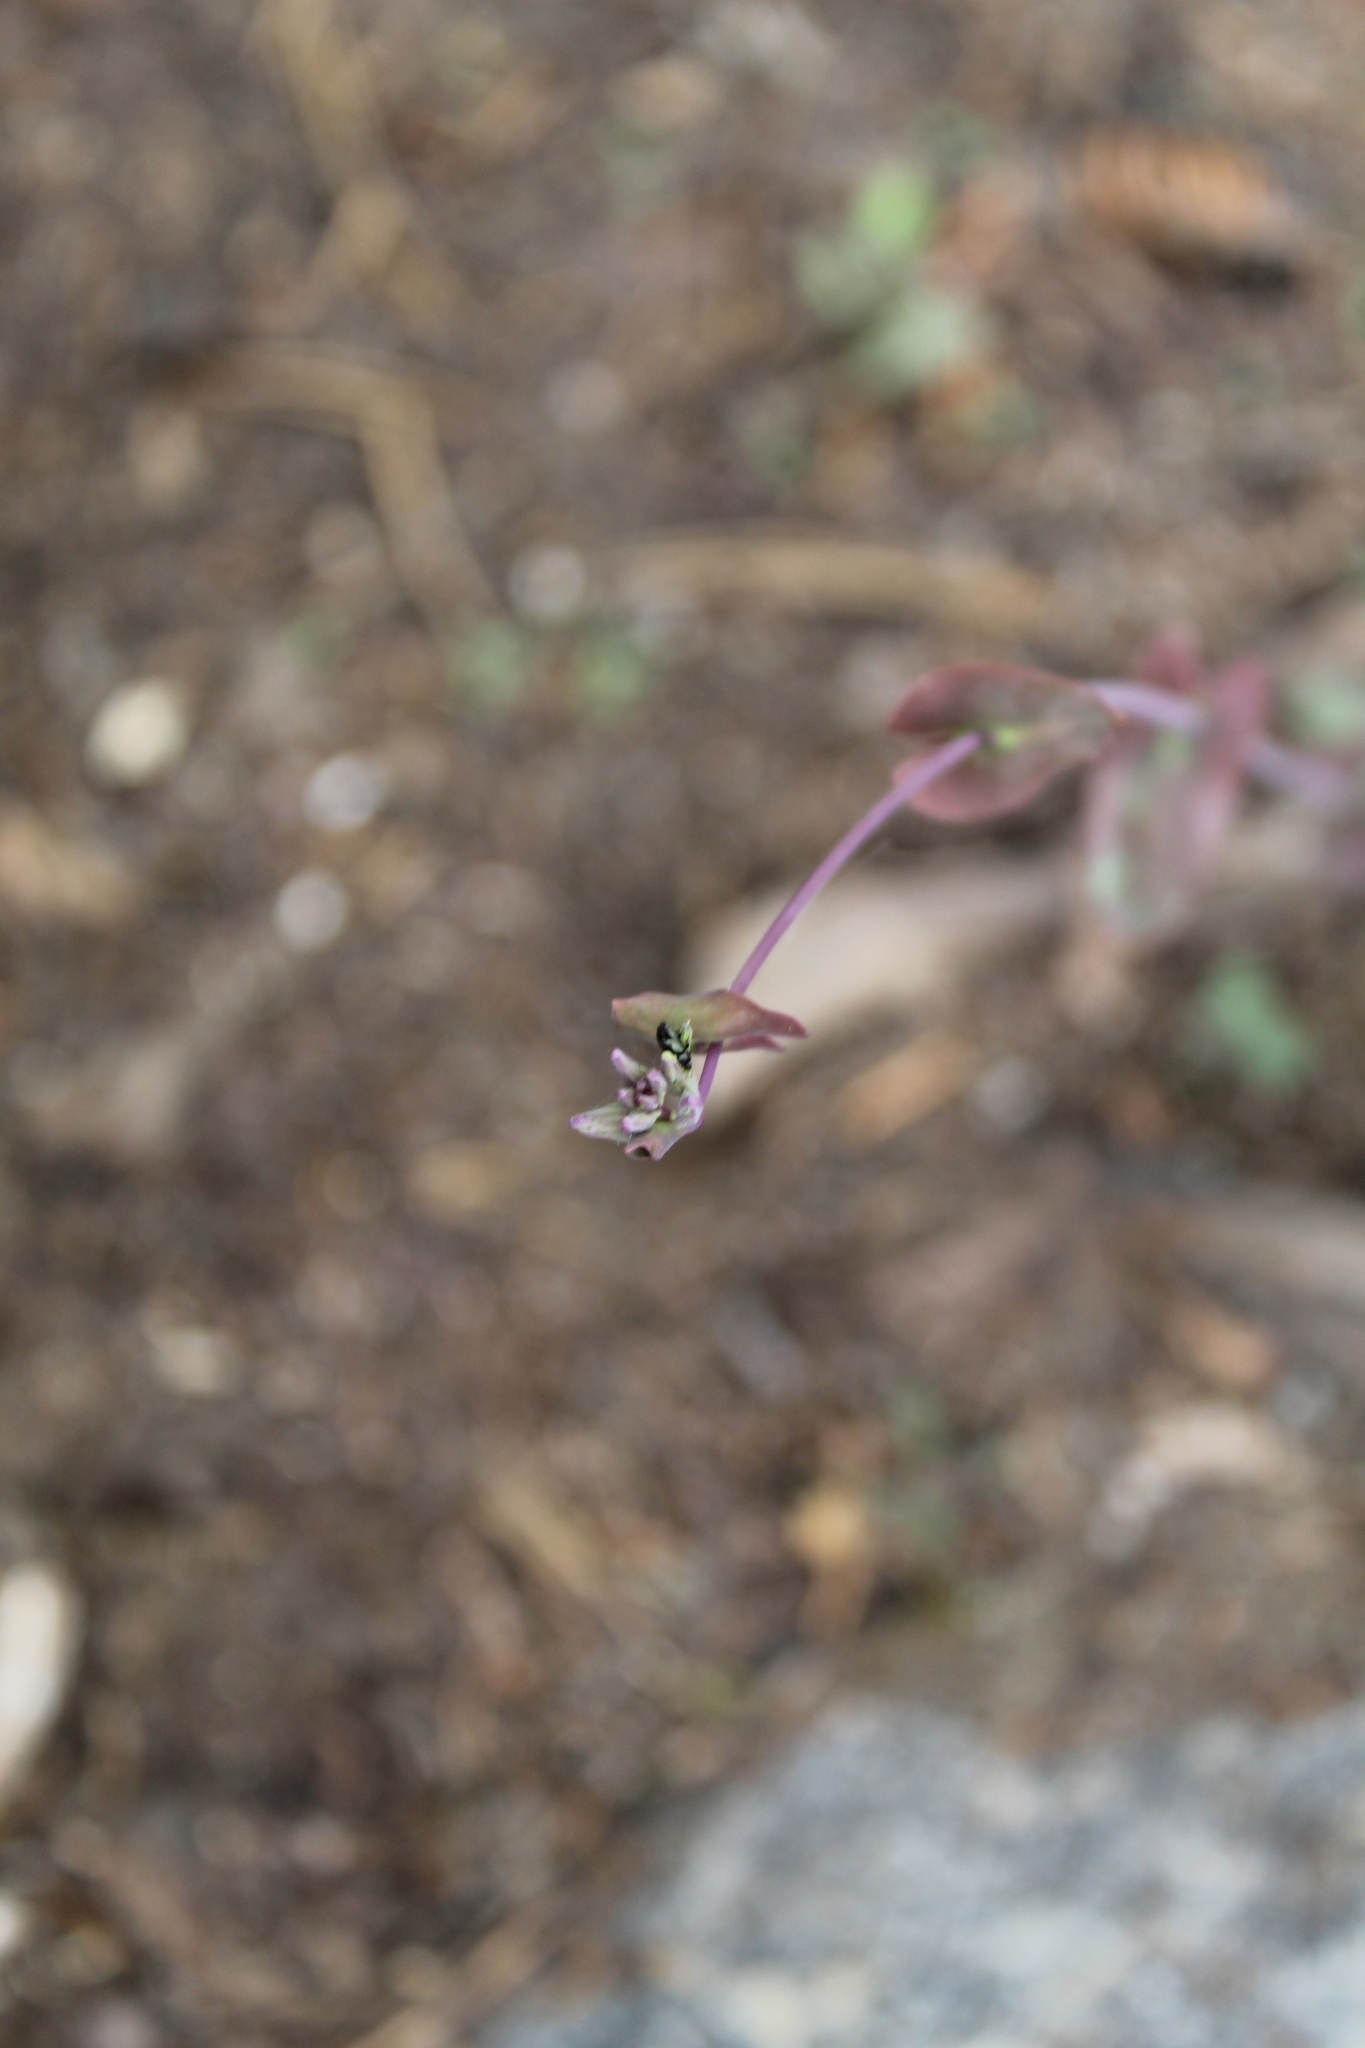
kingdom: Plantae
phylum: Tracheophyta
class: Magnoliopsida
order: Brassicales
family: Brassicaceae
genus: Streptanthus
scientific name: Streptanthus tortuosus
